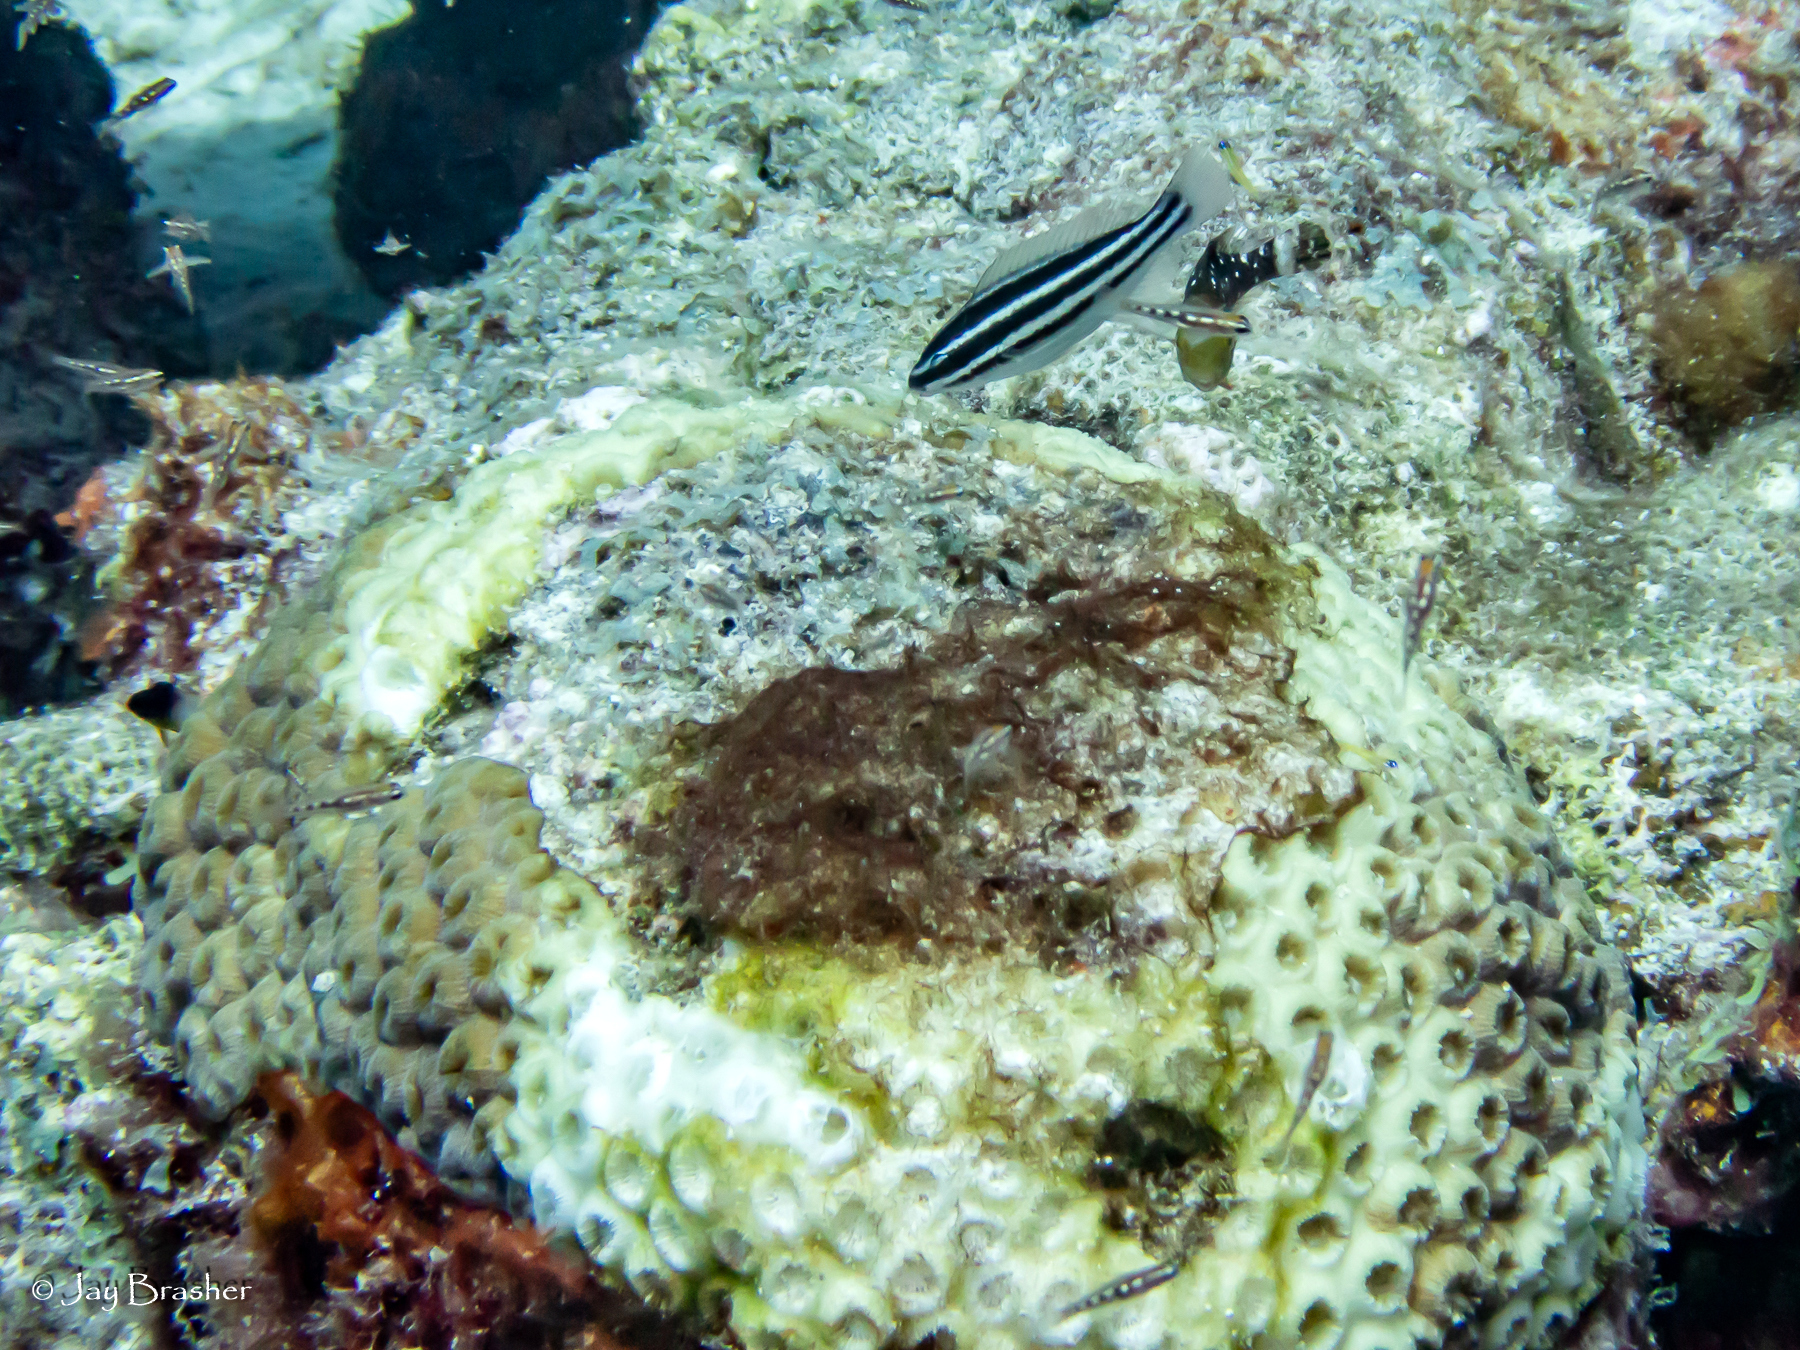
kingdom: Animalia
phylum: Cnidaria
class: Anthozoa
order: Scleractinia
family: Montastraeidae
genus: Montastraea
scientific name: Montastraea cavernosa
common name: Great star coral
